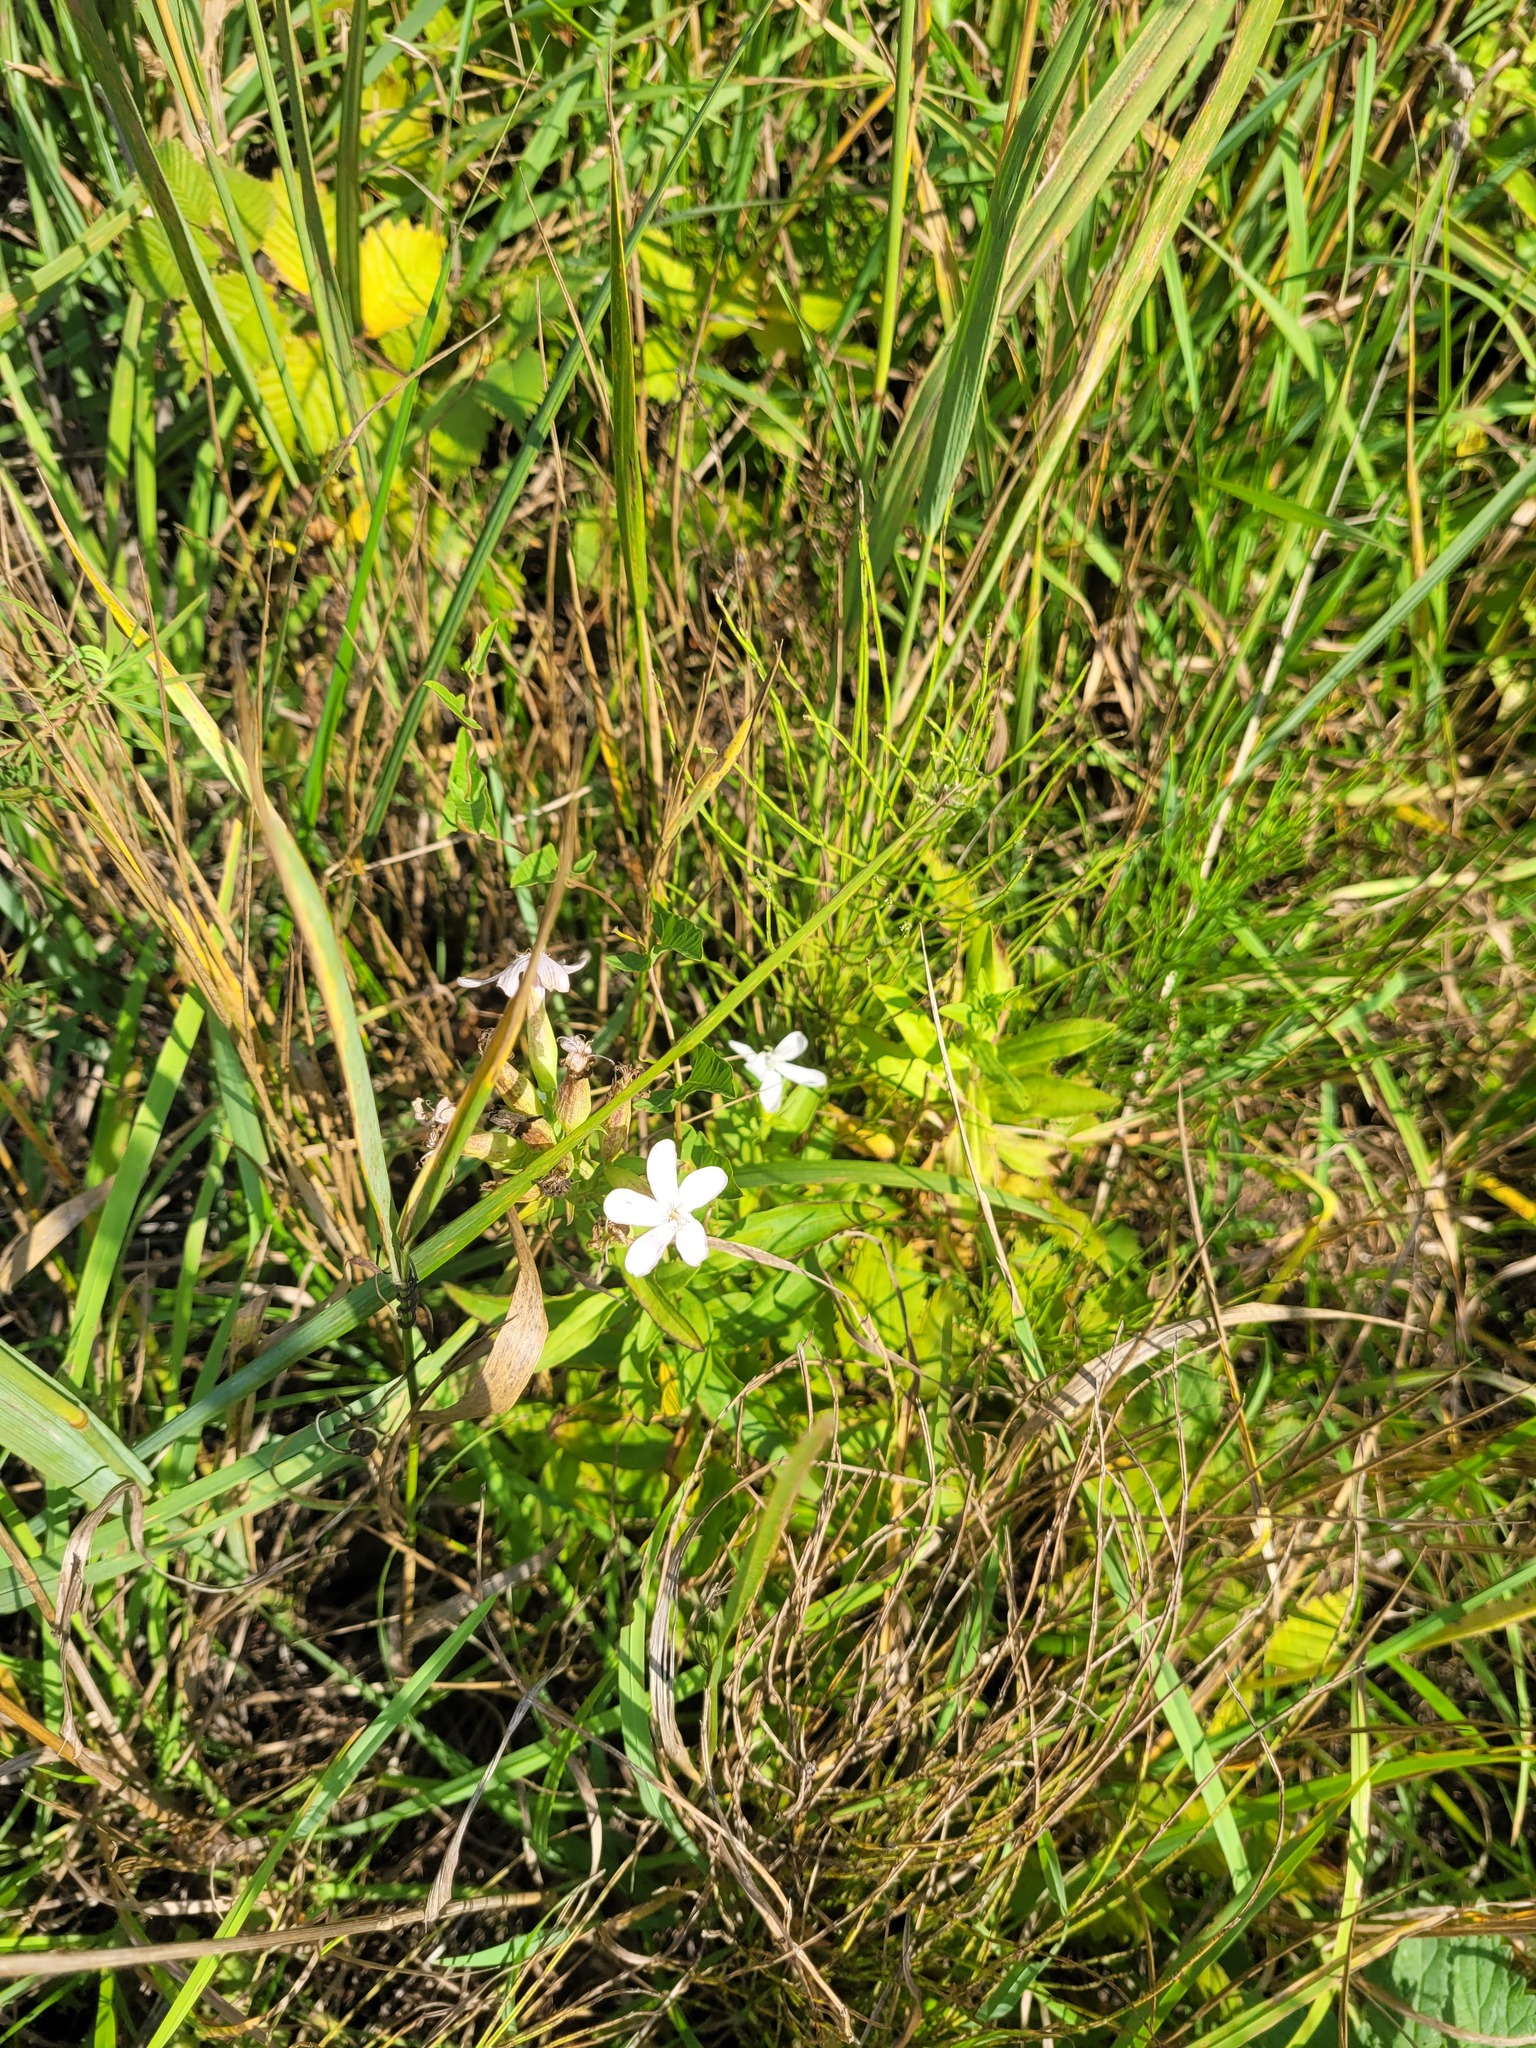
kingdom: Plantae
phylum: Tracheophyta
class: Magnoliopsida
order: Caryophyllales
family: Caryophyllaceae
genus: Saponaria
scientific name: Saponaria officinalis
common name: Soapwort
